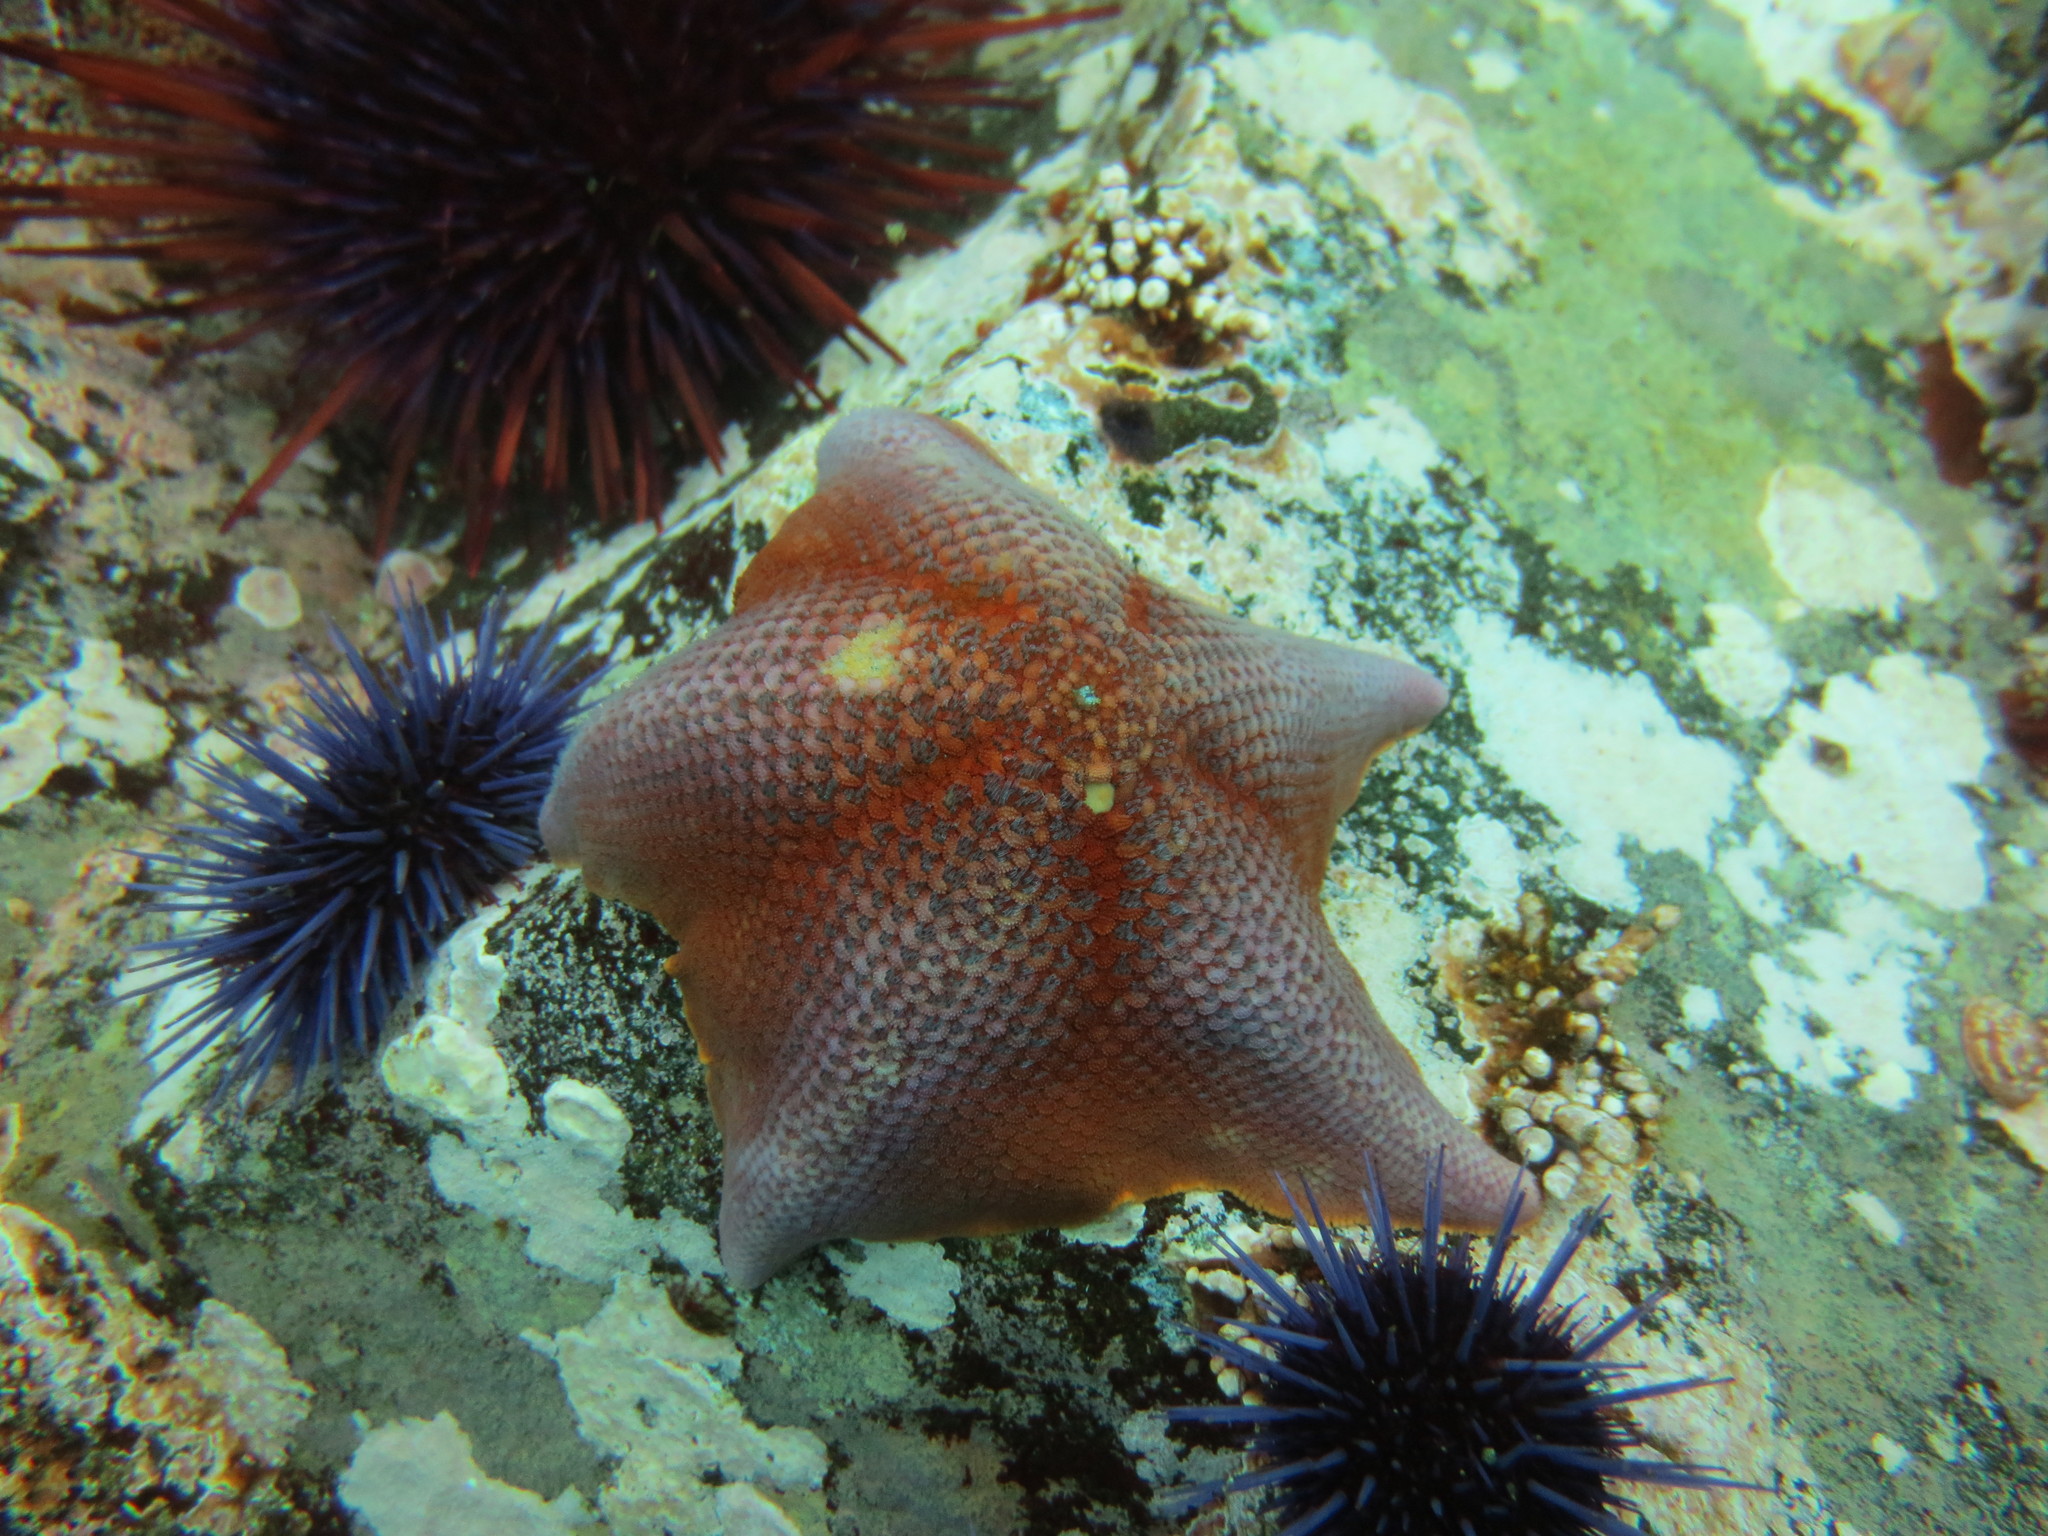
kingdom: Animalia
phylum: Echinodermata
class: Asteroidea
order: Valvatida
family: Asterinidae
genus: Patiria
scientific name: Patiria miniata
